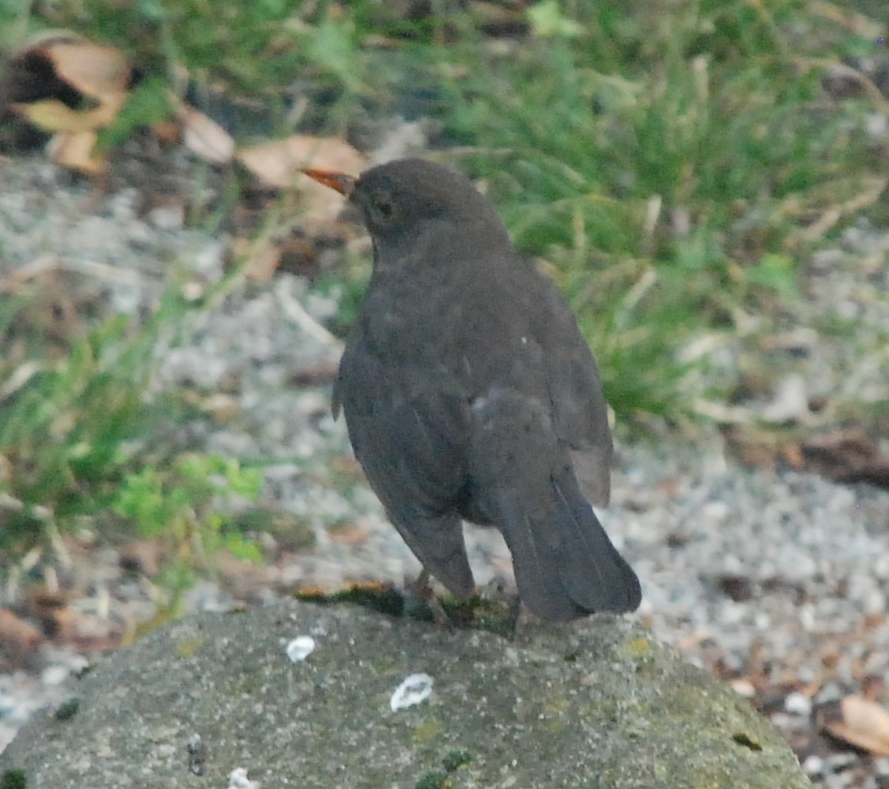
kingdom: Animalia
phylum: Chordata
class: Aves
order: Passeriformes
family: Turdidae
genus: Turdus
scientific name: Turdus merula
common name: Common blackbird
